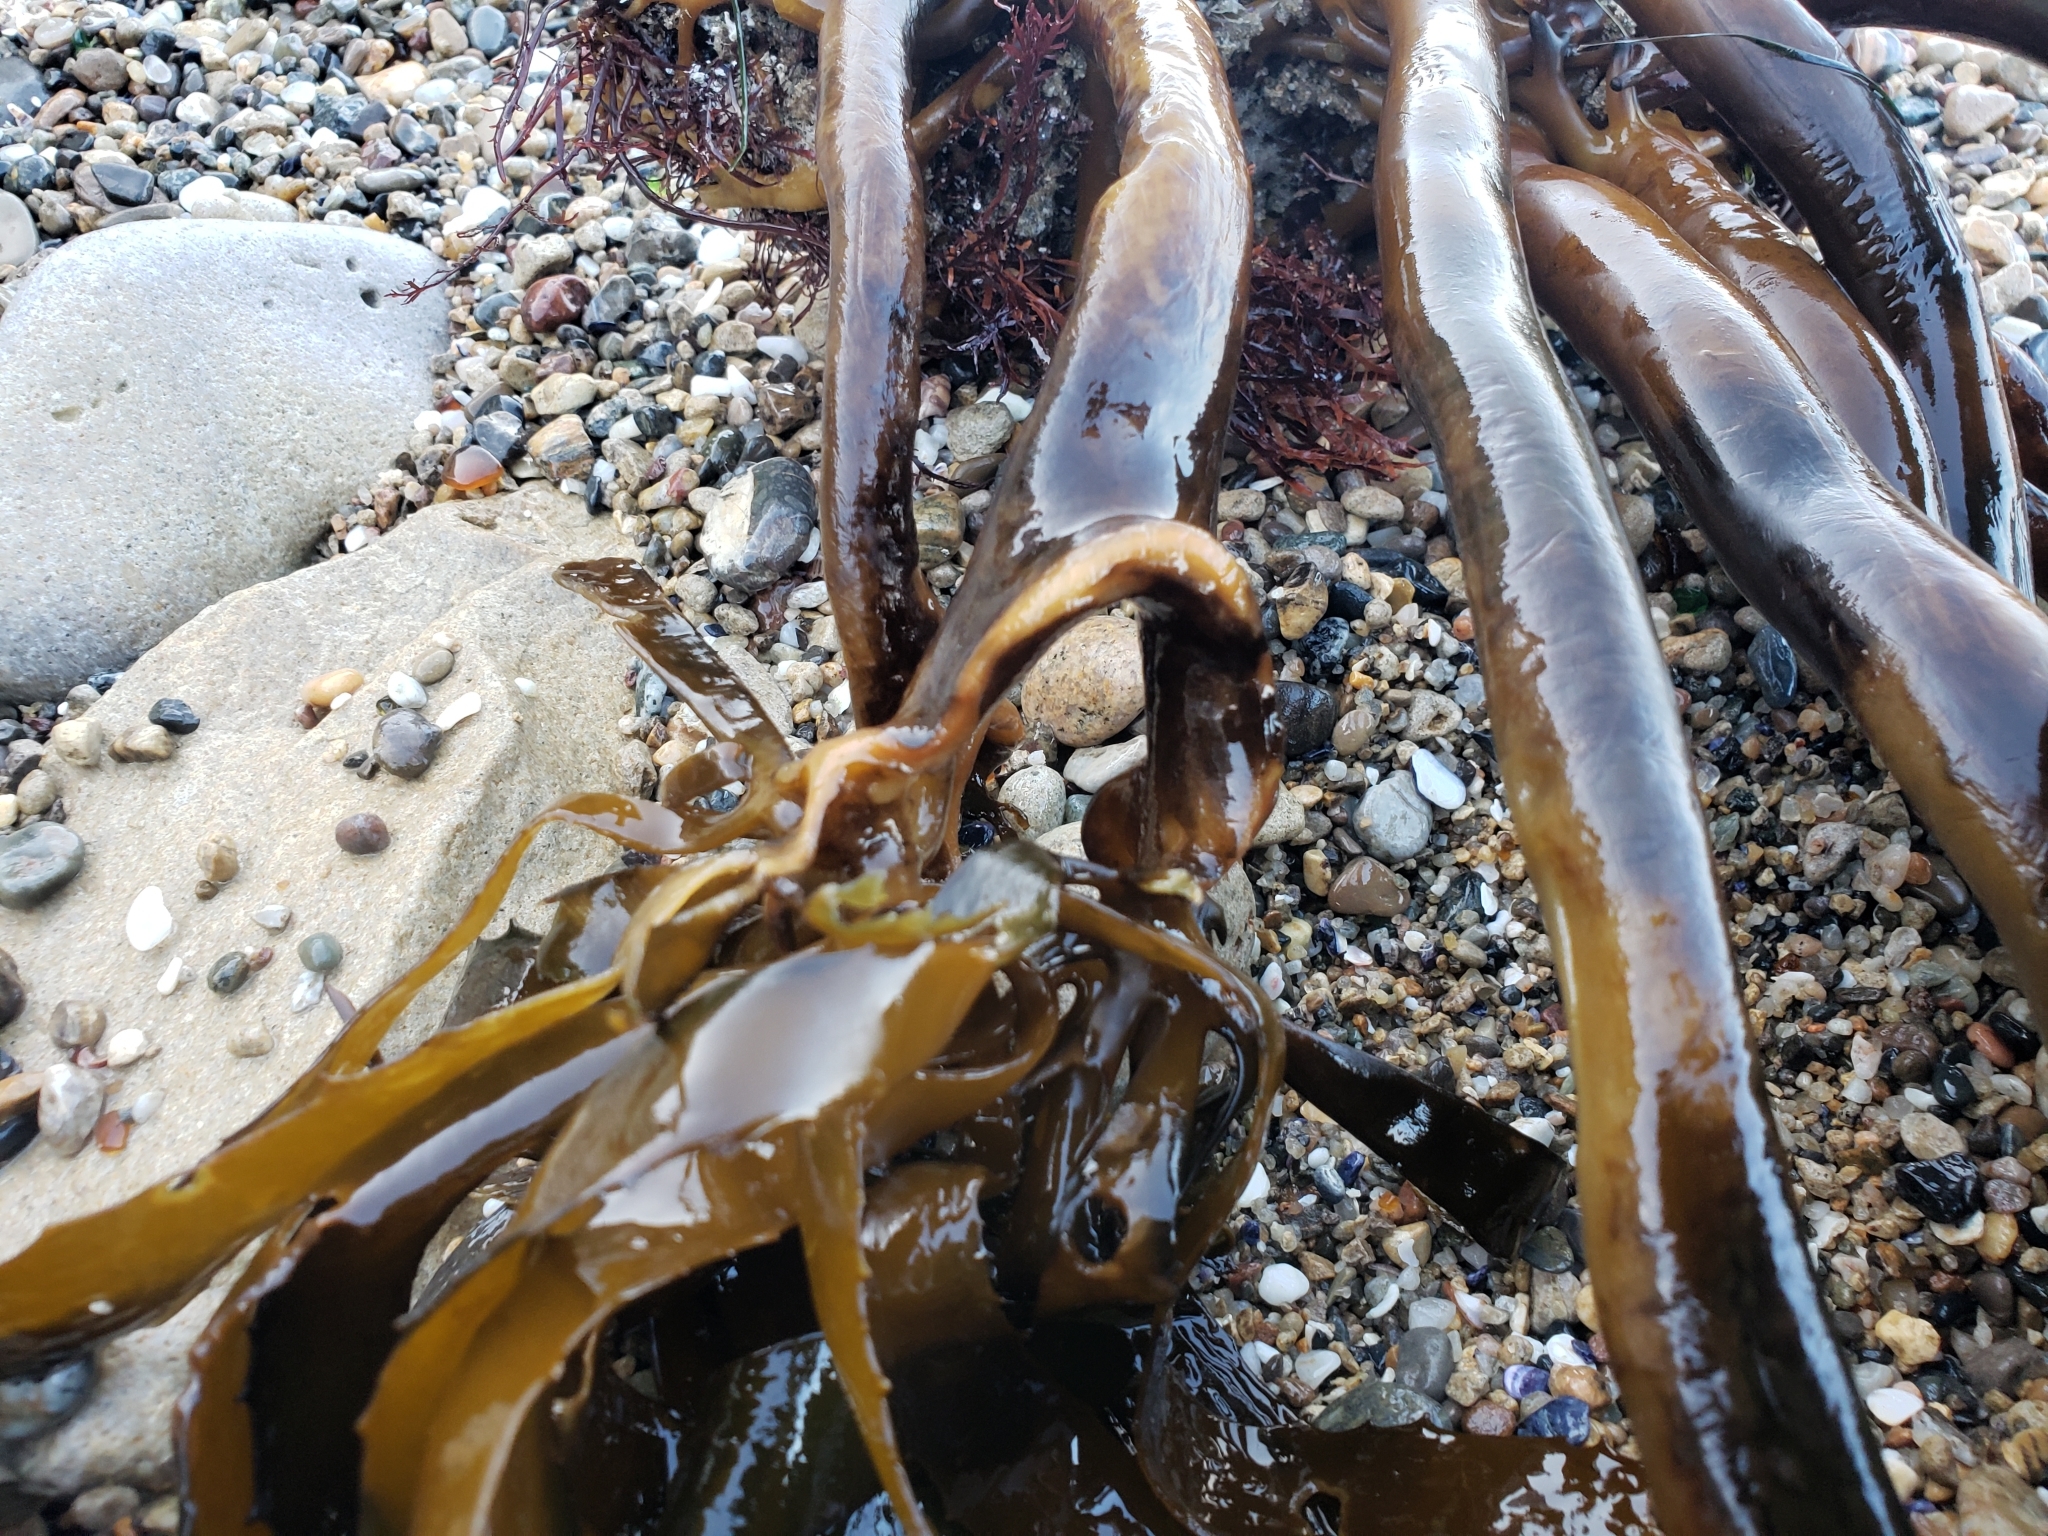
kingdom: Chromista
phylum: Ochrophyta
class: Phaeophyceae
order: Laminariales
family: Lessoniaceae
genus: Eisenia
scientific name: Eisenia arborea
